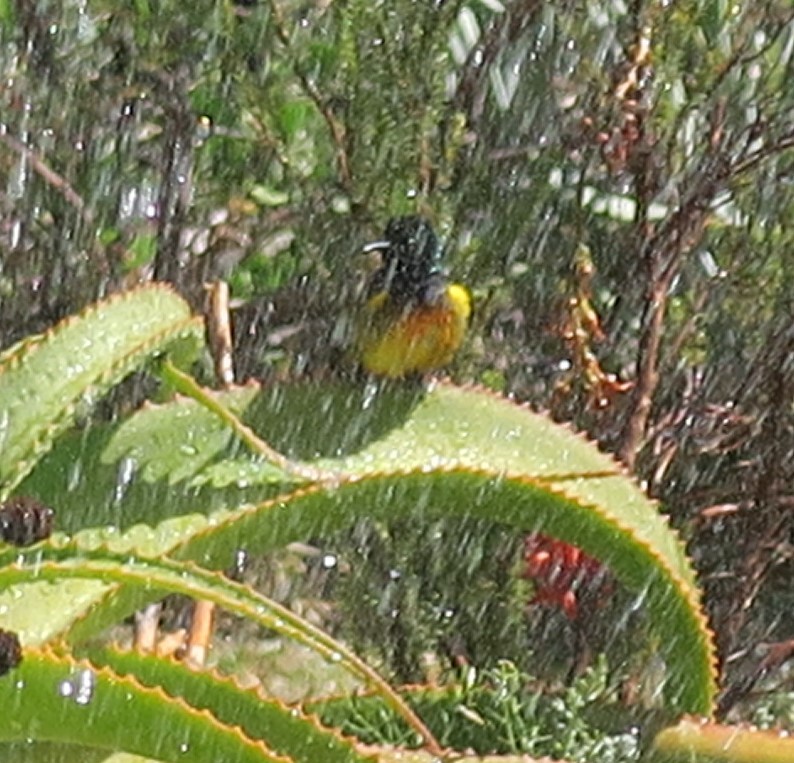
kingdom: Animalia
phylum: Chordata
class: Aves
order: Passeriformes
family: Nectariniidae
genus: Anthobaphes
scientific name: Anthobaphes violacea
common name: Orange-breasted sunbird
